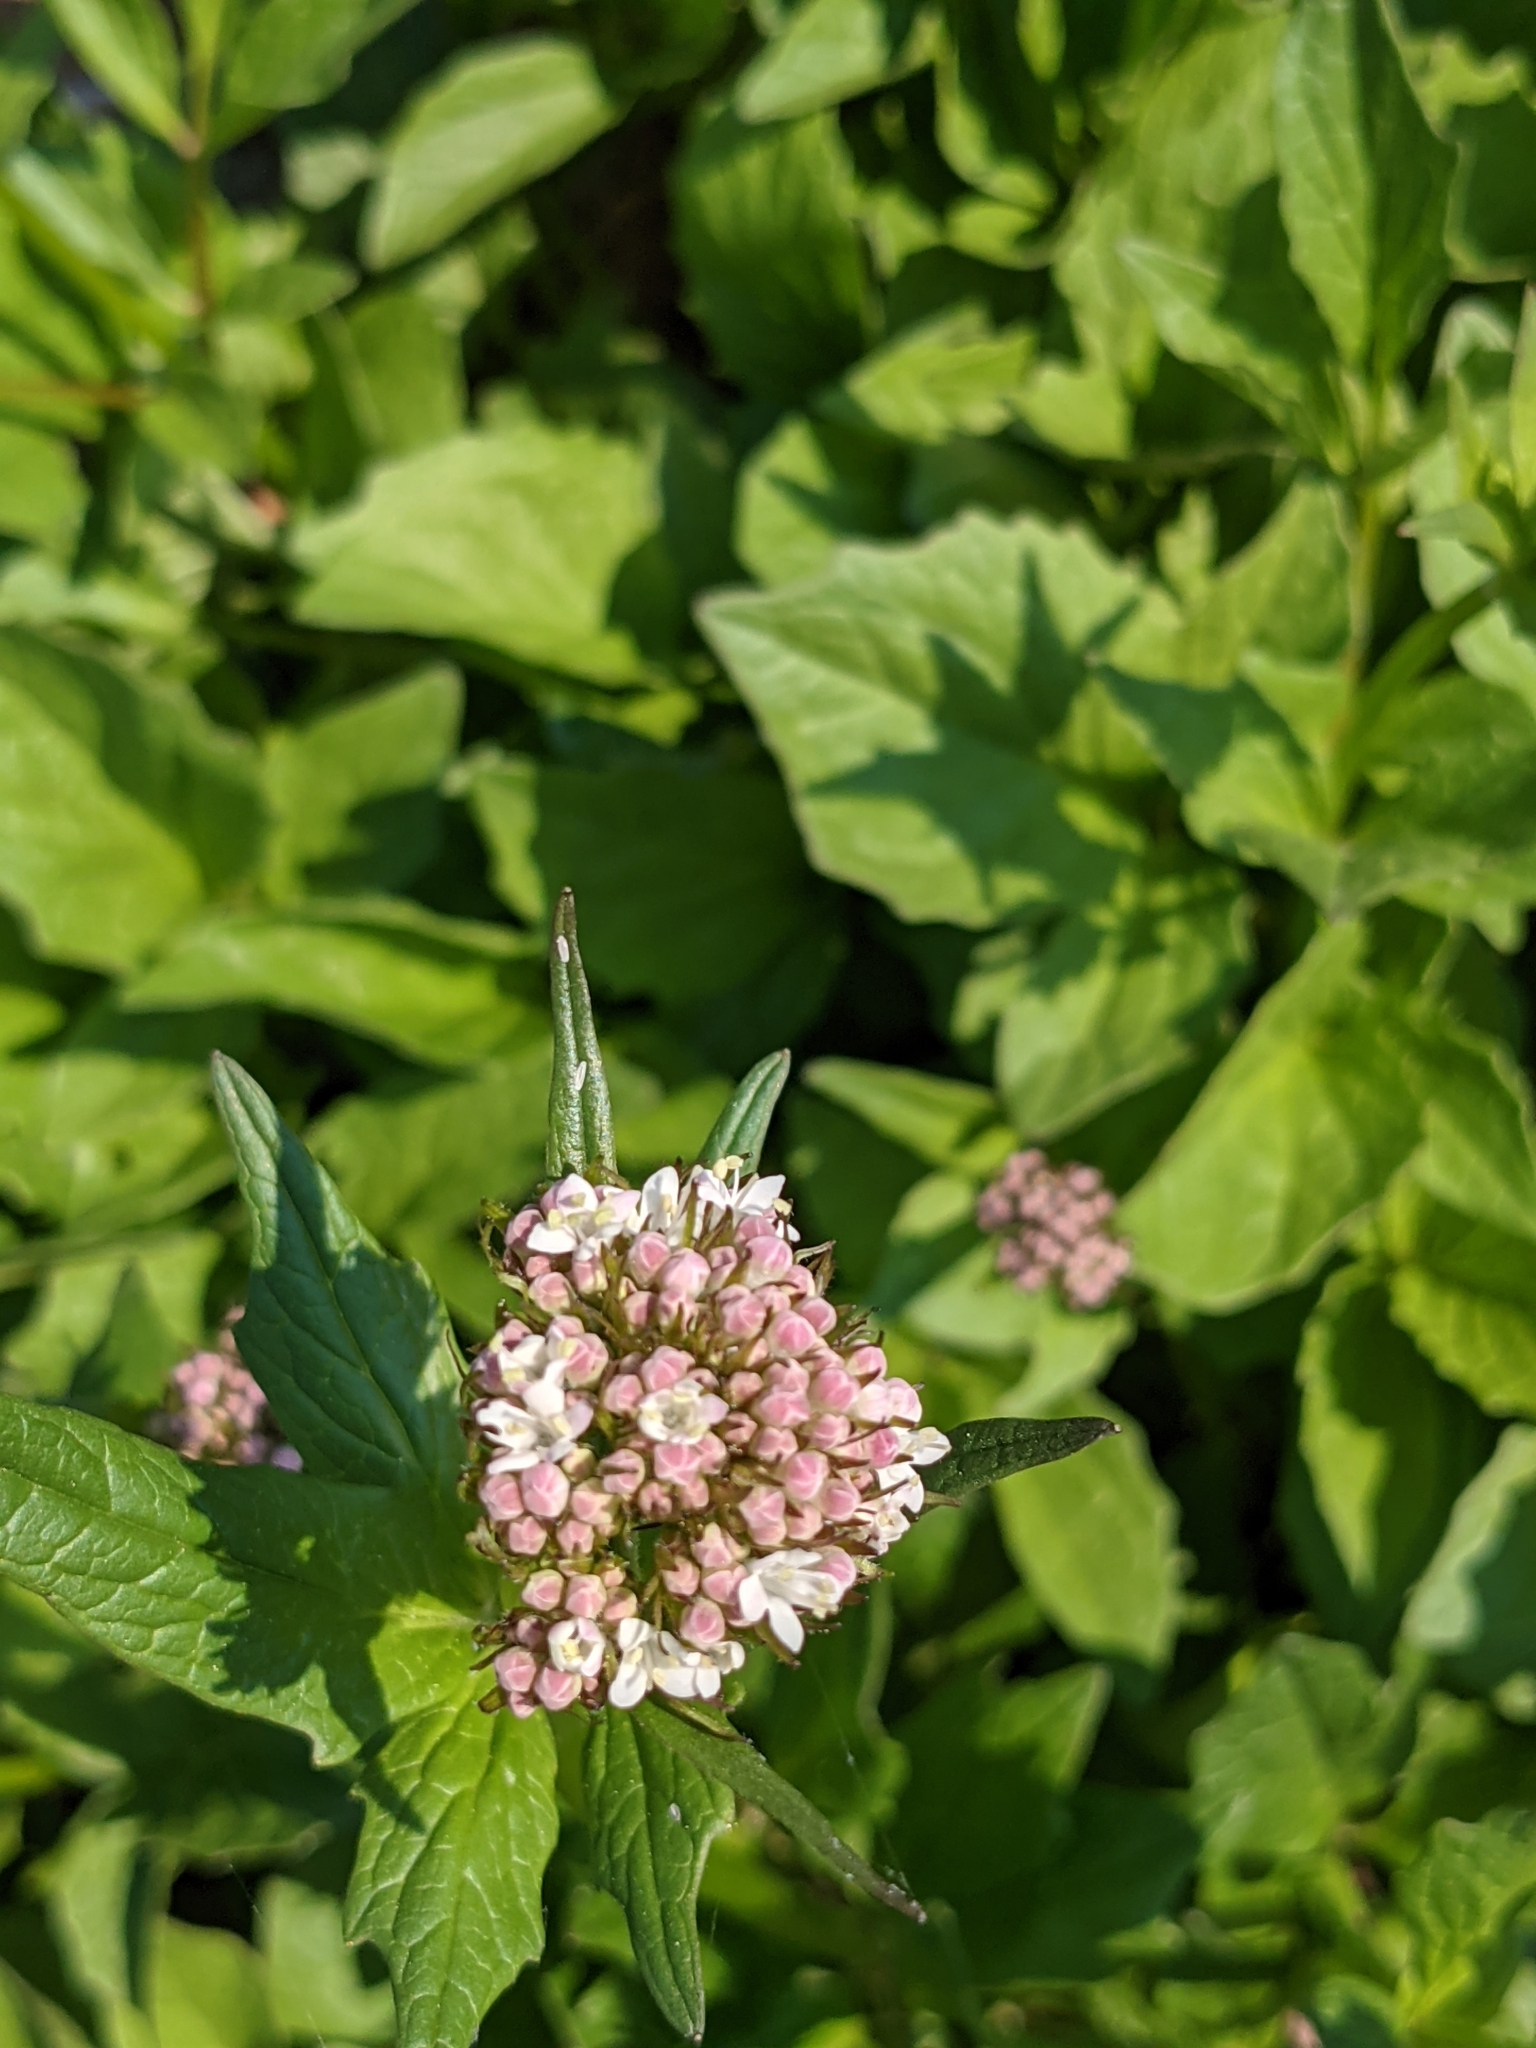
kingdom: Plantae
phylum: Tracheophyta
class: Magnoliopsida
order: Dipsacales
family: Caprifoliaceae
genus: Valeriana
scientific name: Valeriana sitchensis
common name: Pacific valerian
